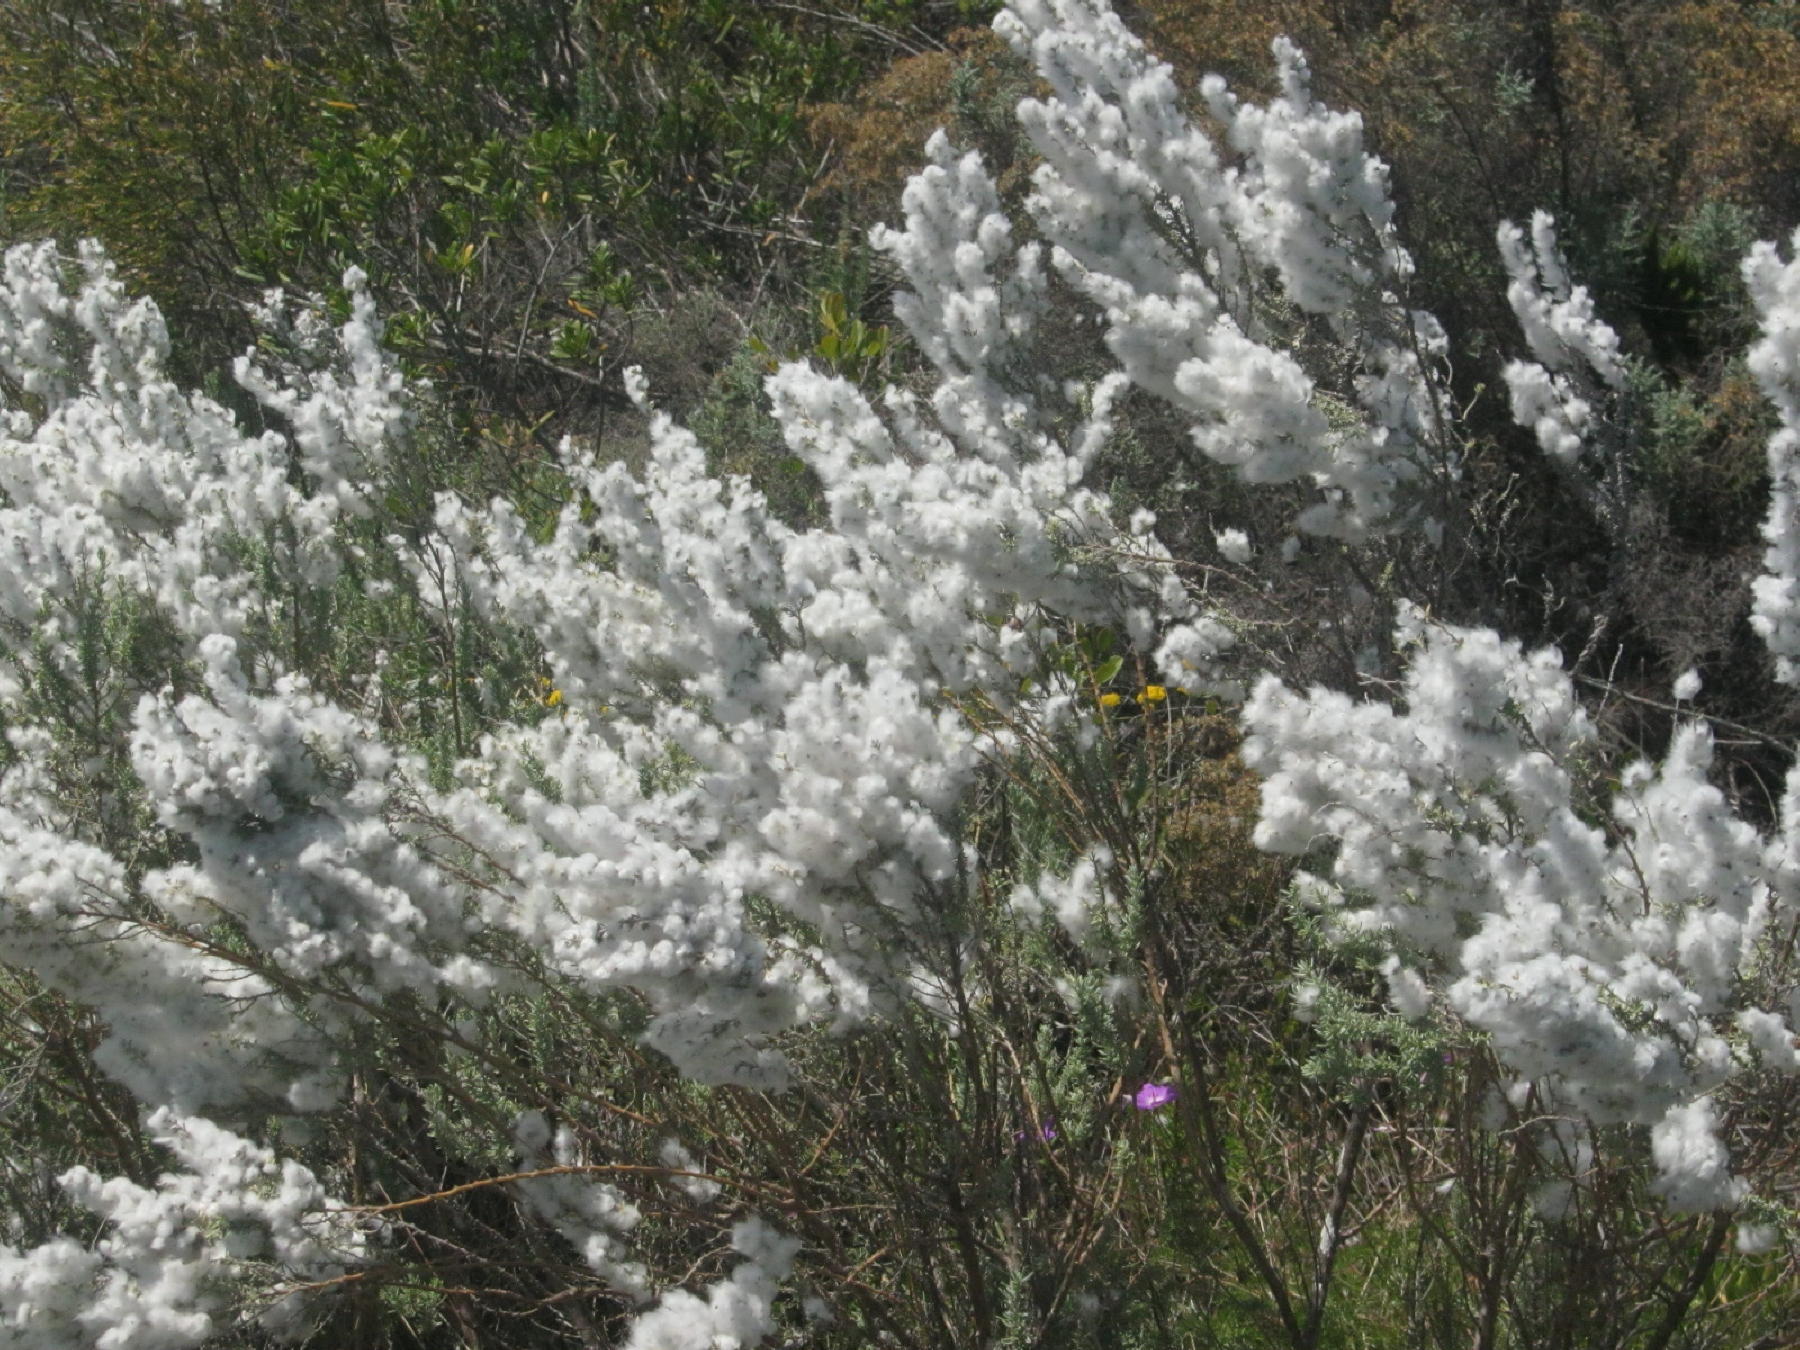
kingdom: Plantae
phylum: Tracheophyta
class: Magnoliopsida
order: Asterales
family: Asteraceae
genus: Eriocephalus
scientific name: Eriocephalus racemosus
